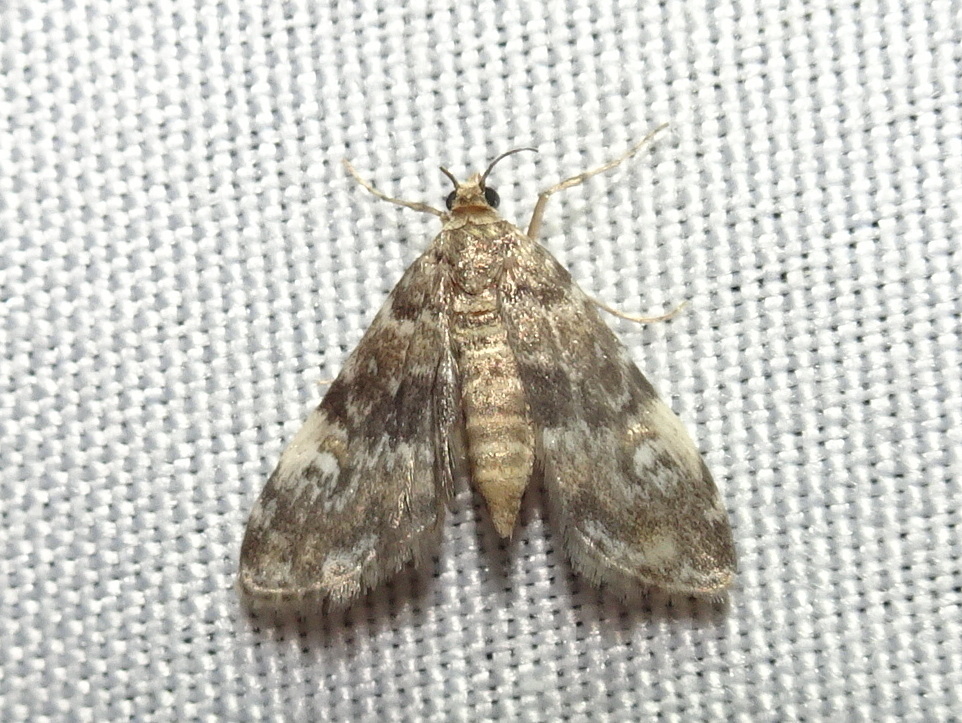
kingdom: Animalia
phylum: Arthropoda
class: Insecta
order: Lepidoptera
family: Crambidae
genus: Elophila
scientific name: Elophila obliteralis
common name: Waterlily leafcutter moth
